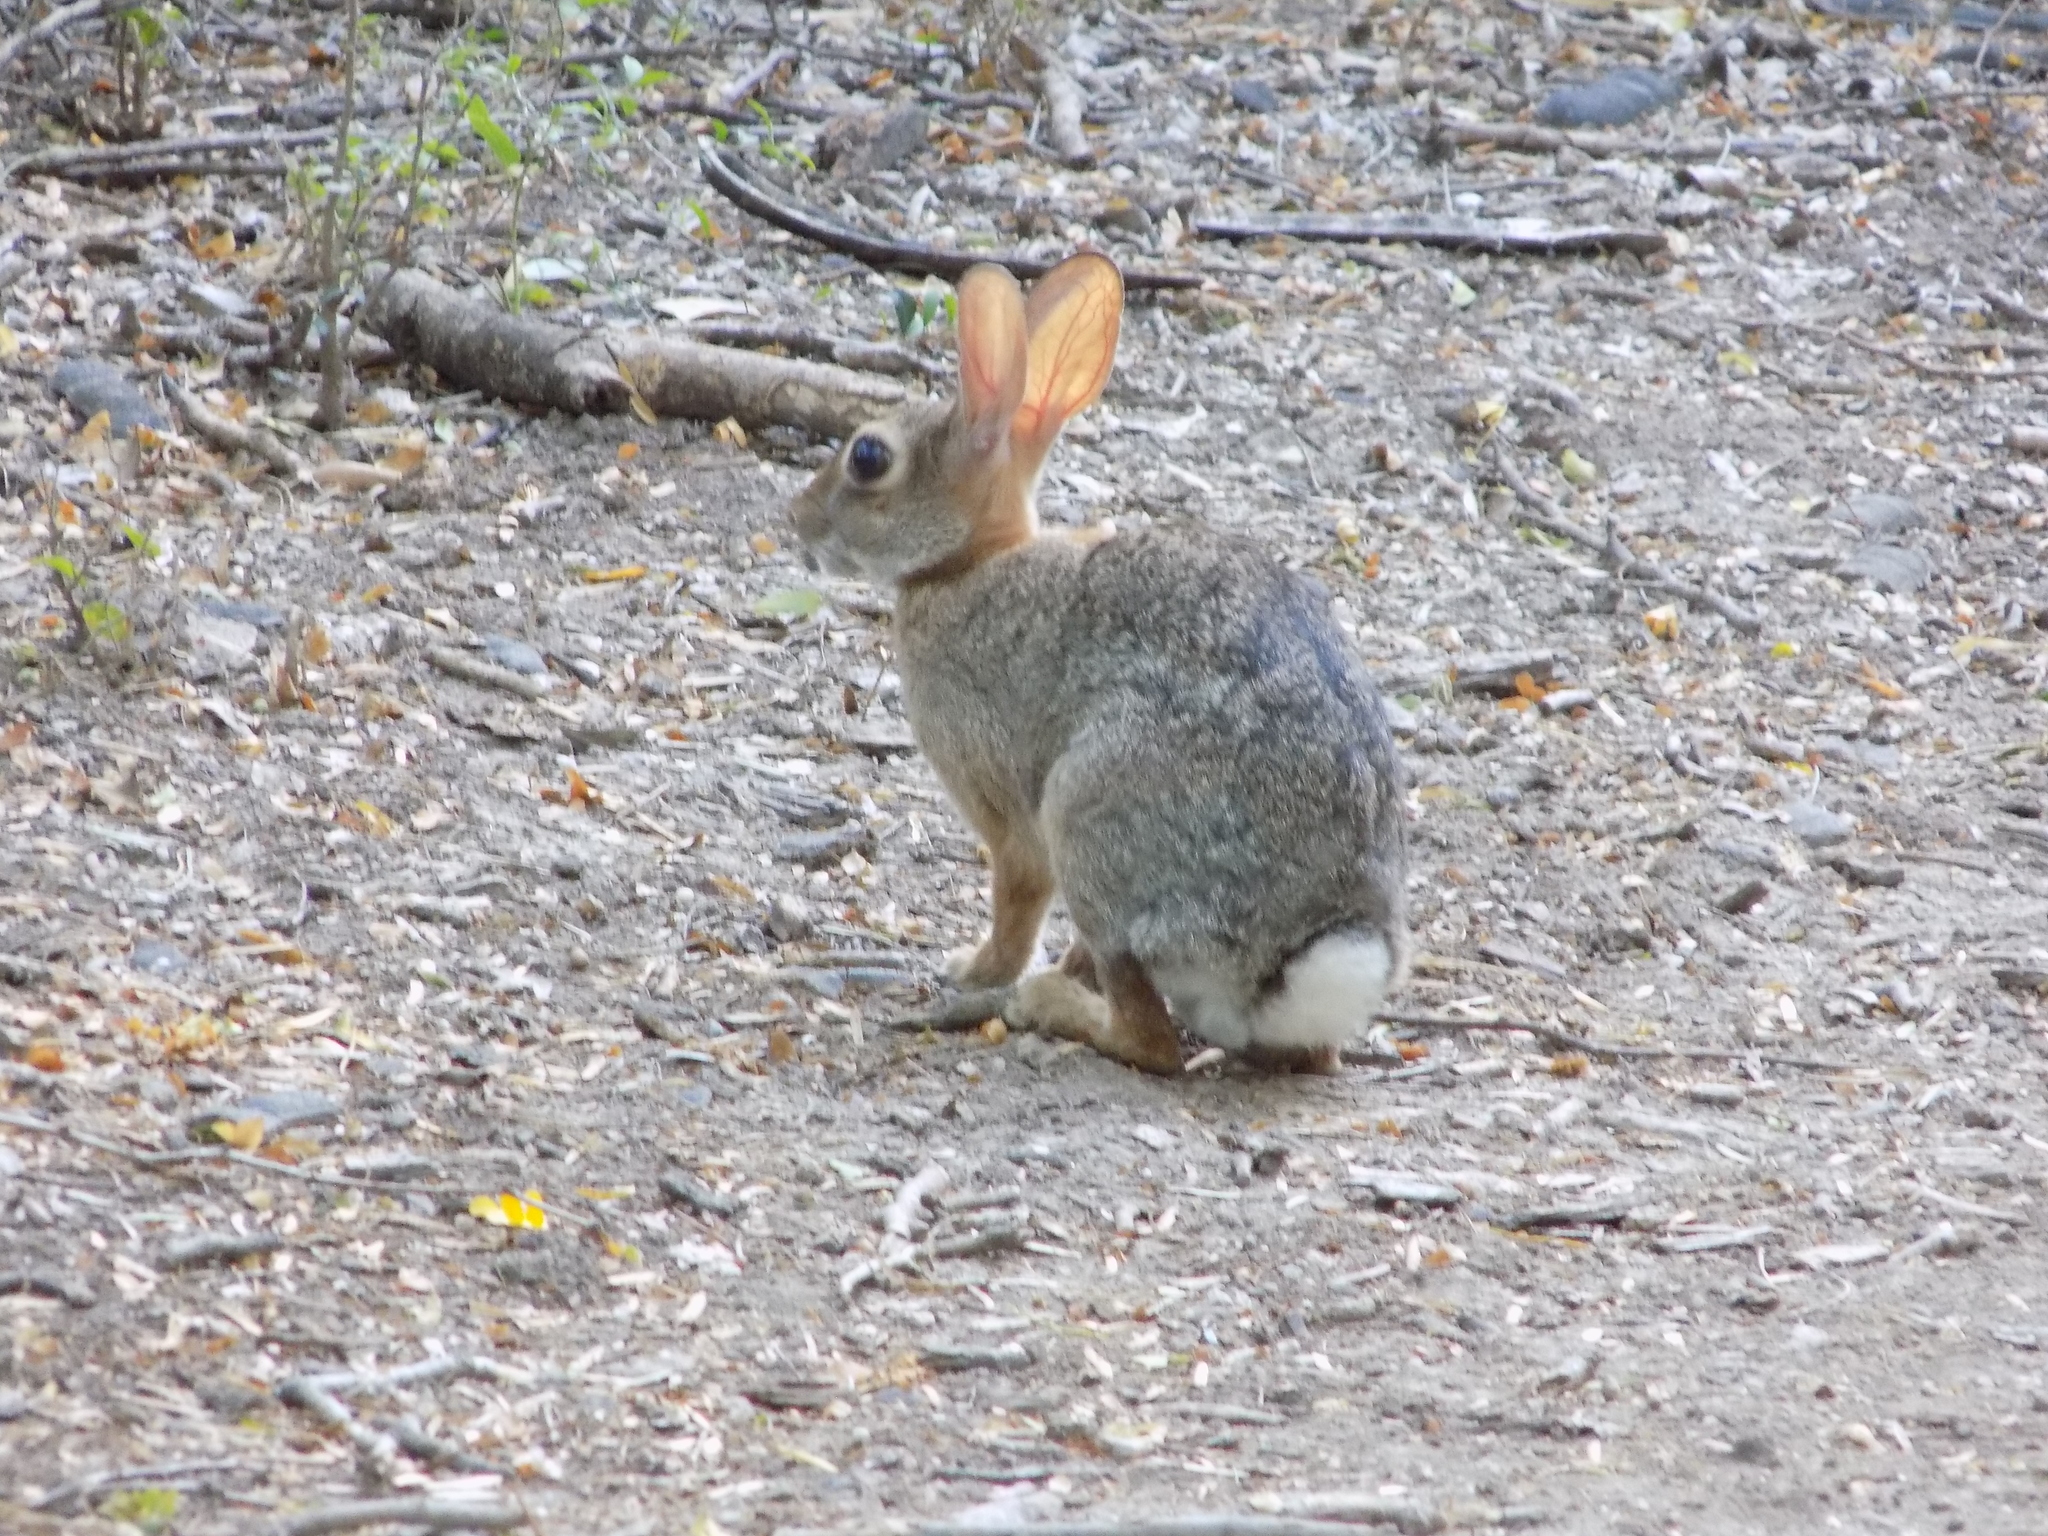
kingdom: Animalia
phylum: Chordata
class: Mammalia
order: Lagomorpha
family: Leporidae
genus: Sylvilagus
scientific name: Sylvilagus floridanus
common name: Eastern cottontail
